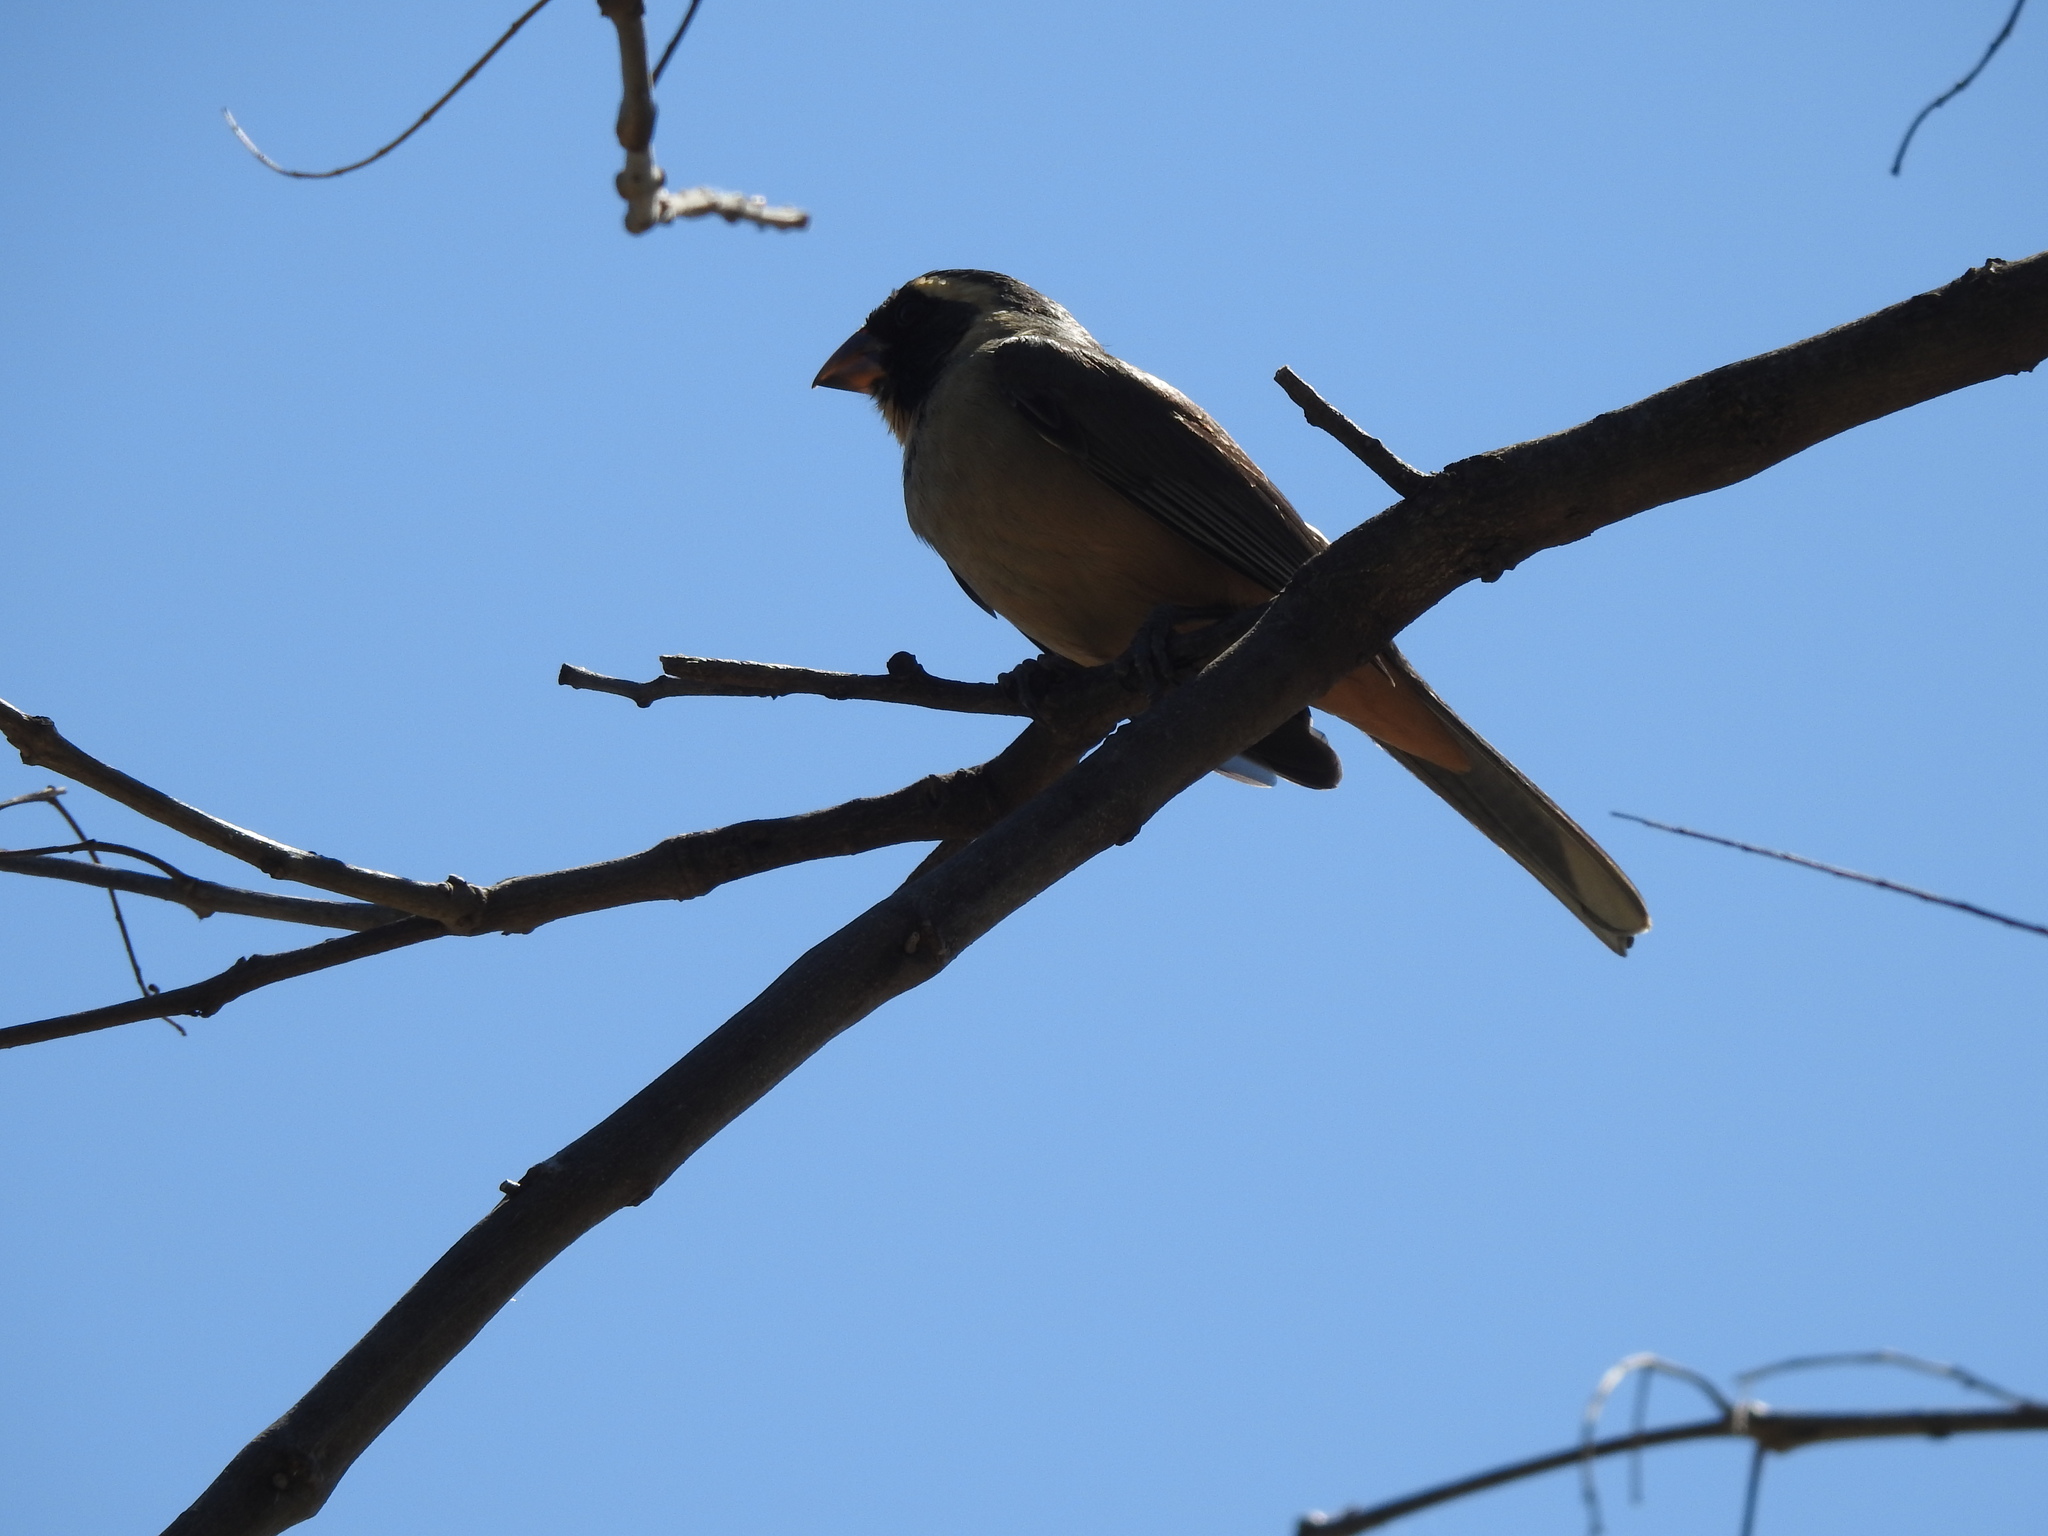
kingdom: Animalia
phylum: Chordata
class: Aves
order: Passeriformes
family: Thraupidae
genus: Saltator
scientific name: Saltator aurantiirostris
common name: Golden-billed saltator
